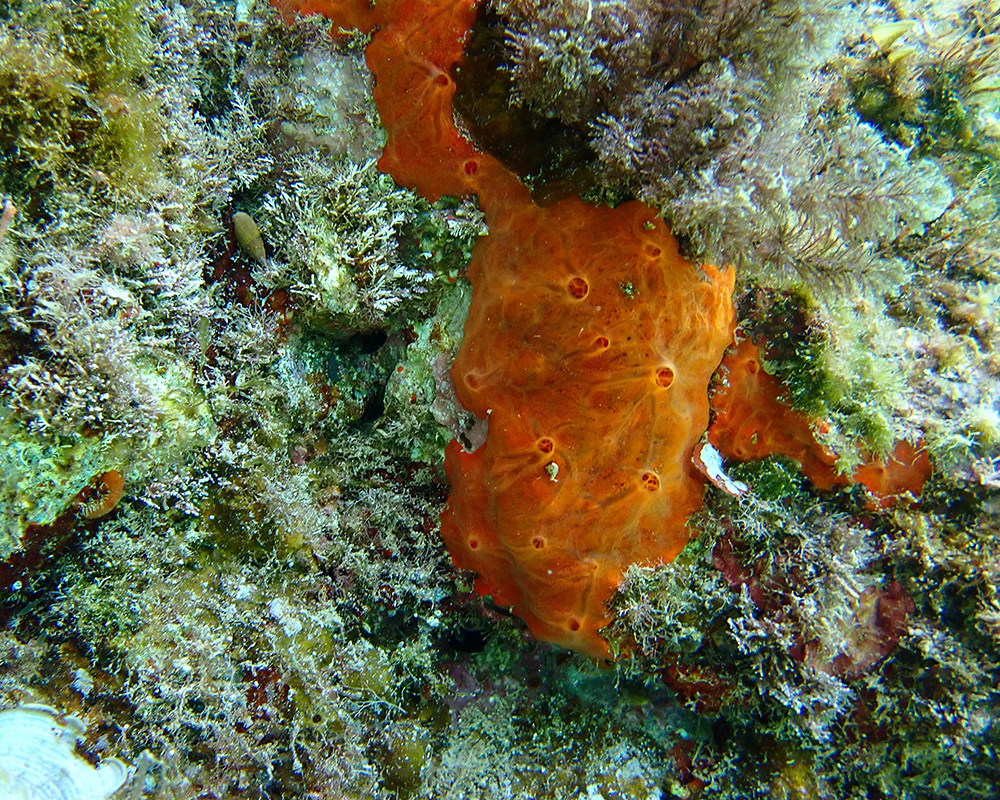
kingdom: Animalia
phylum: Porifera
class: Demospongiae
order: Poecilosclerida
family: Crambeidae
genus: Crambe
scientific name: Crambe crambe
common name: Orange-red encrusting sponge
